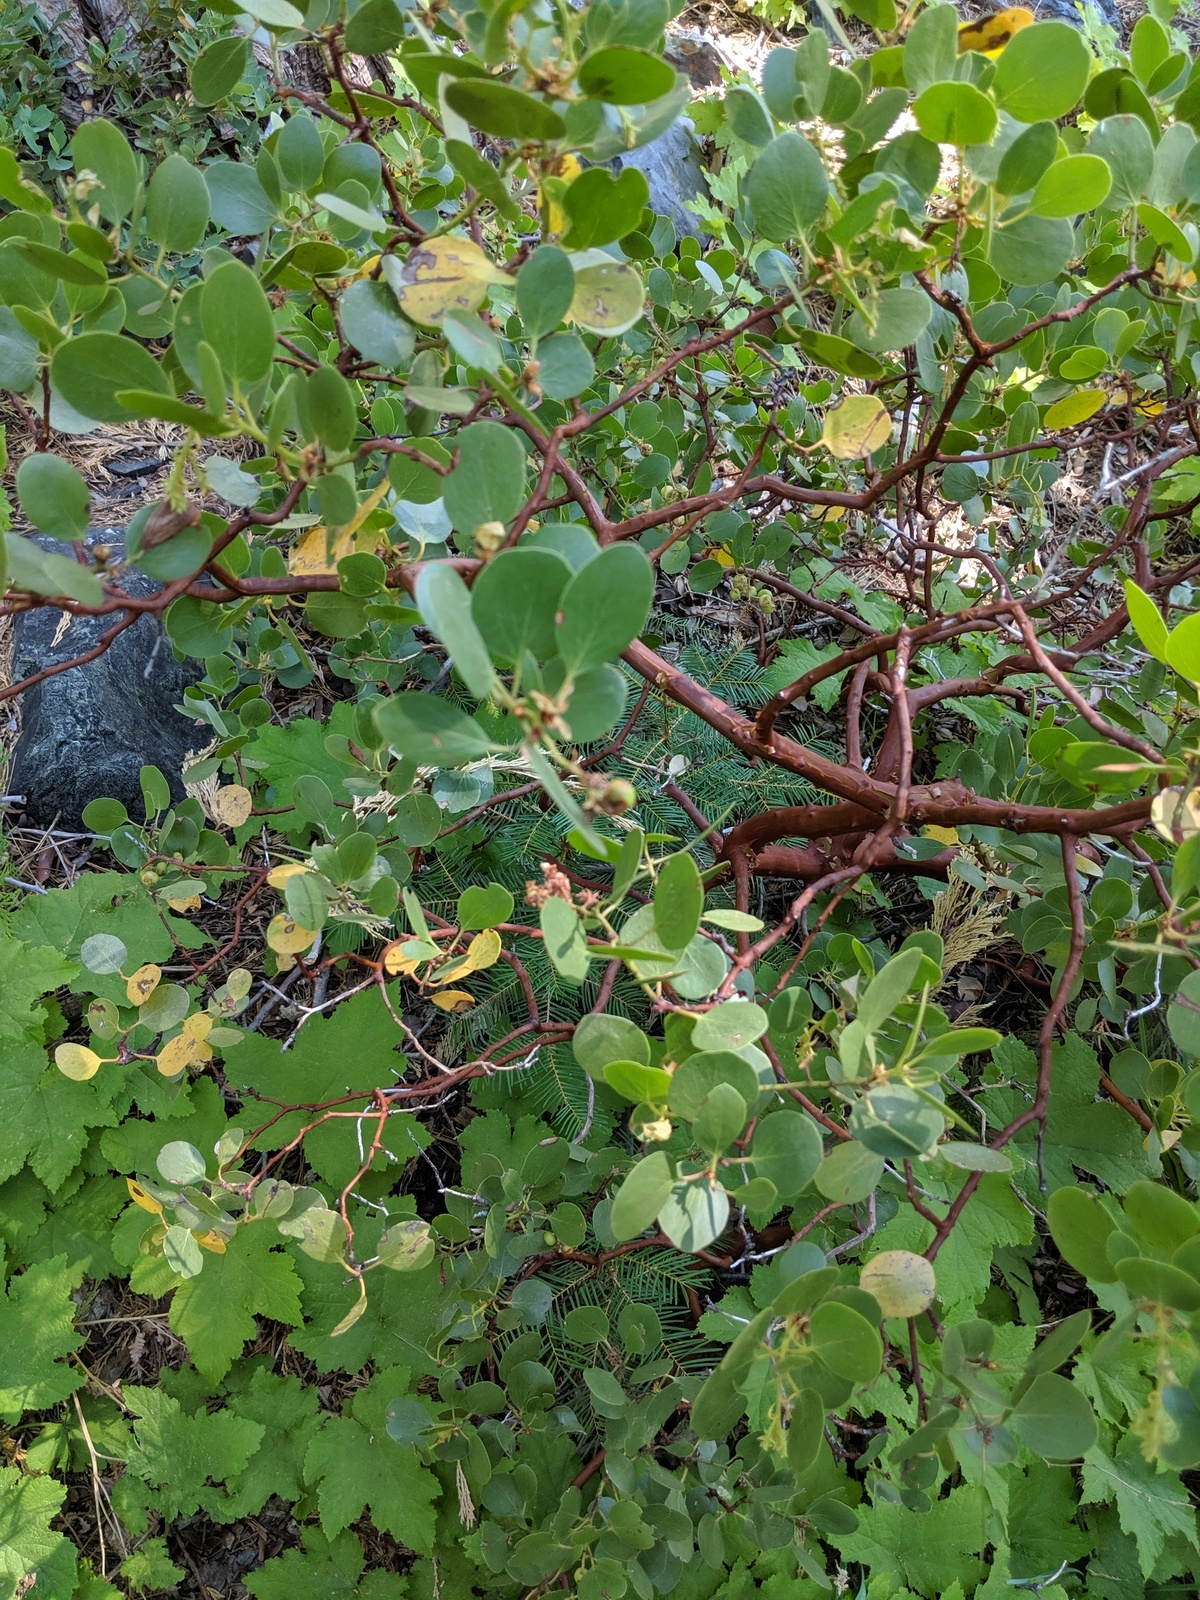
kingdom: Plantae
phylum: Tracheophyta
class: Magnoliopsida
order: Ericales
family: Ericaceae
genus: Arctostaphylos
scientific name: Arctostaphylos patula
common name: Green-leaf manzanita
